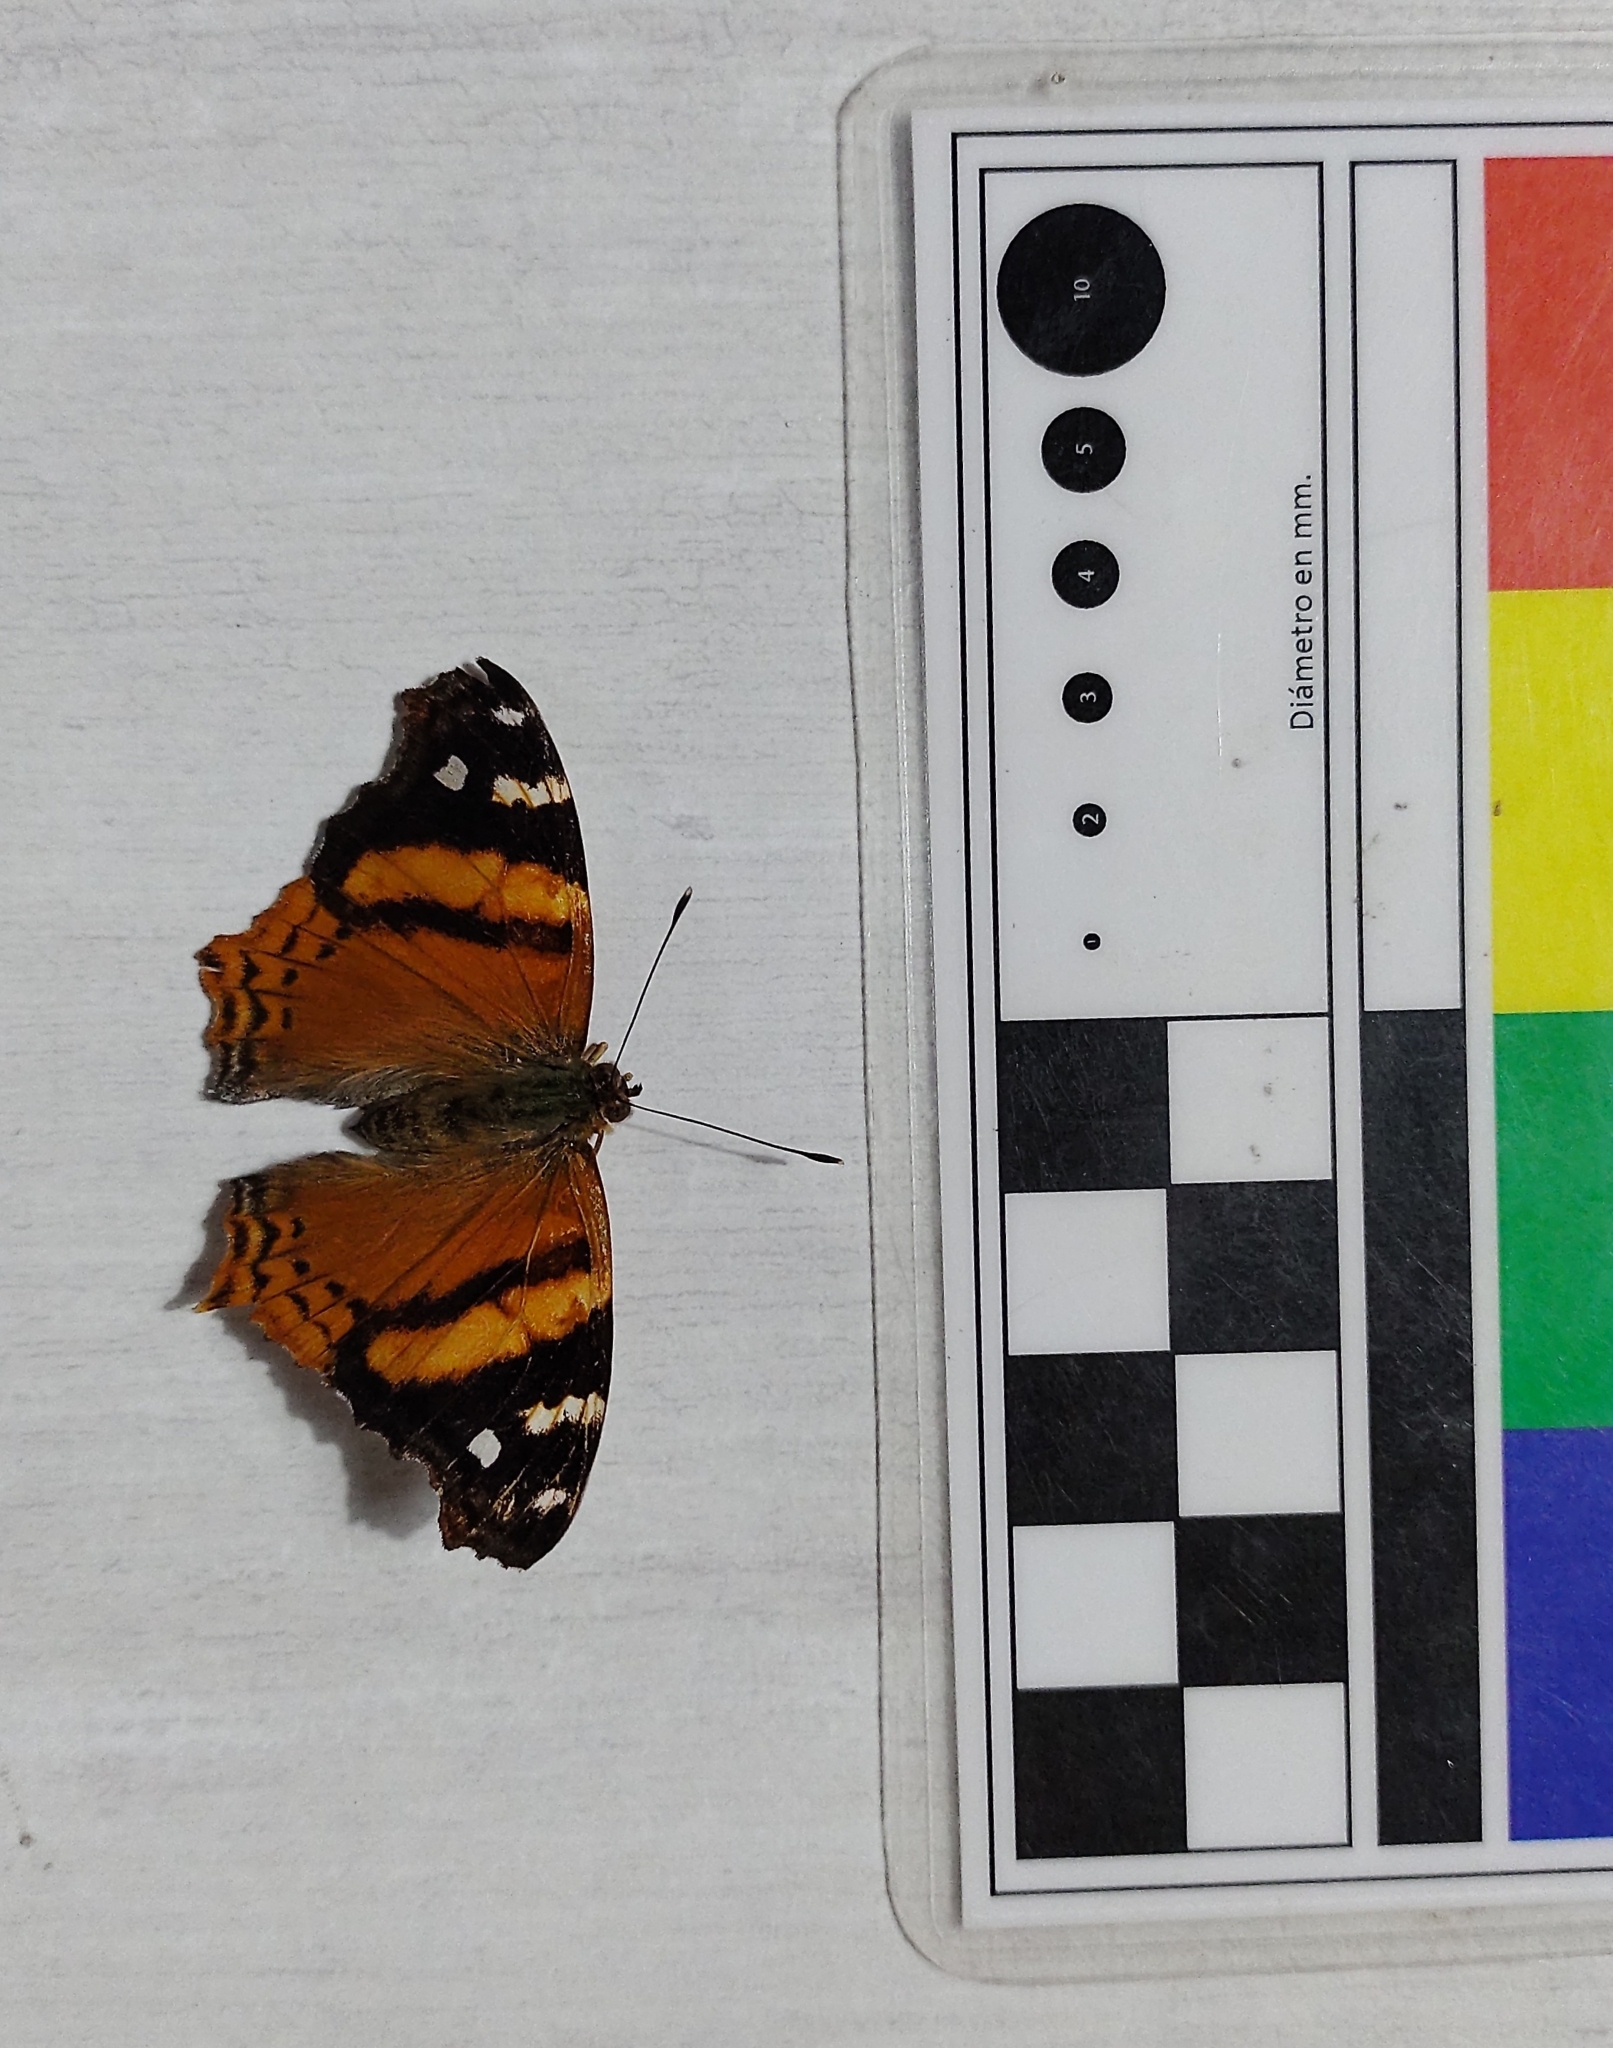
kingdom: Animalia
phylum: Arthropoda
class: Insecta
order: Lepidoptera
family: Nymphalidae
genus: Hypanartia
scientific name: Hypanartia bella
